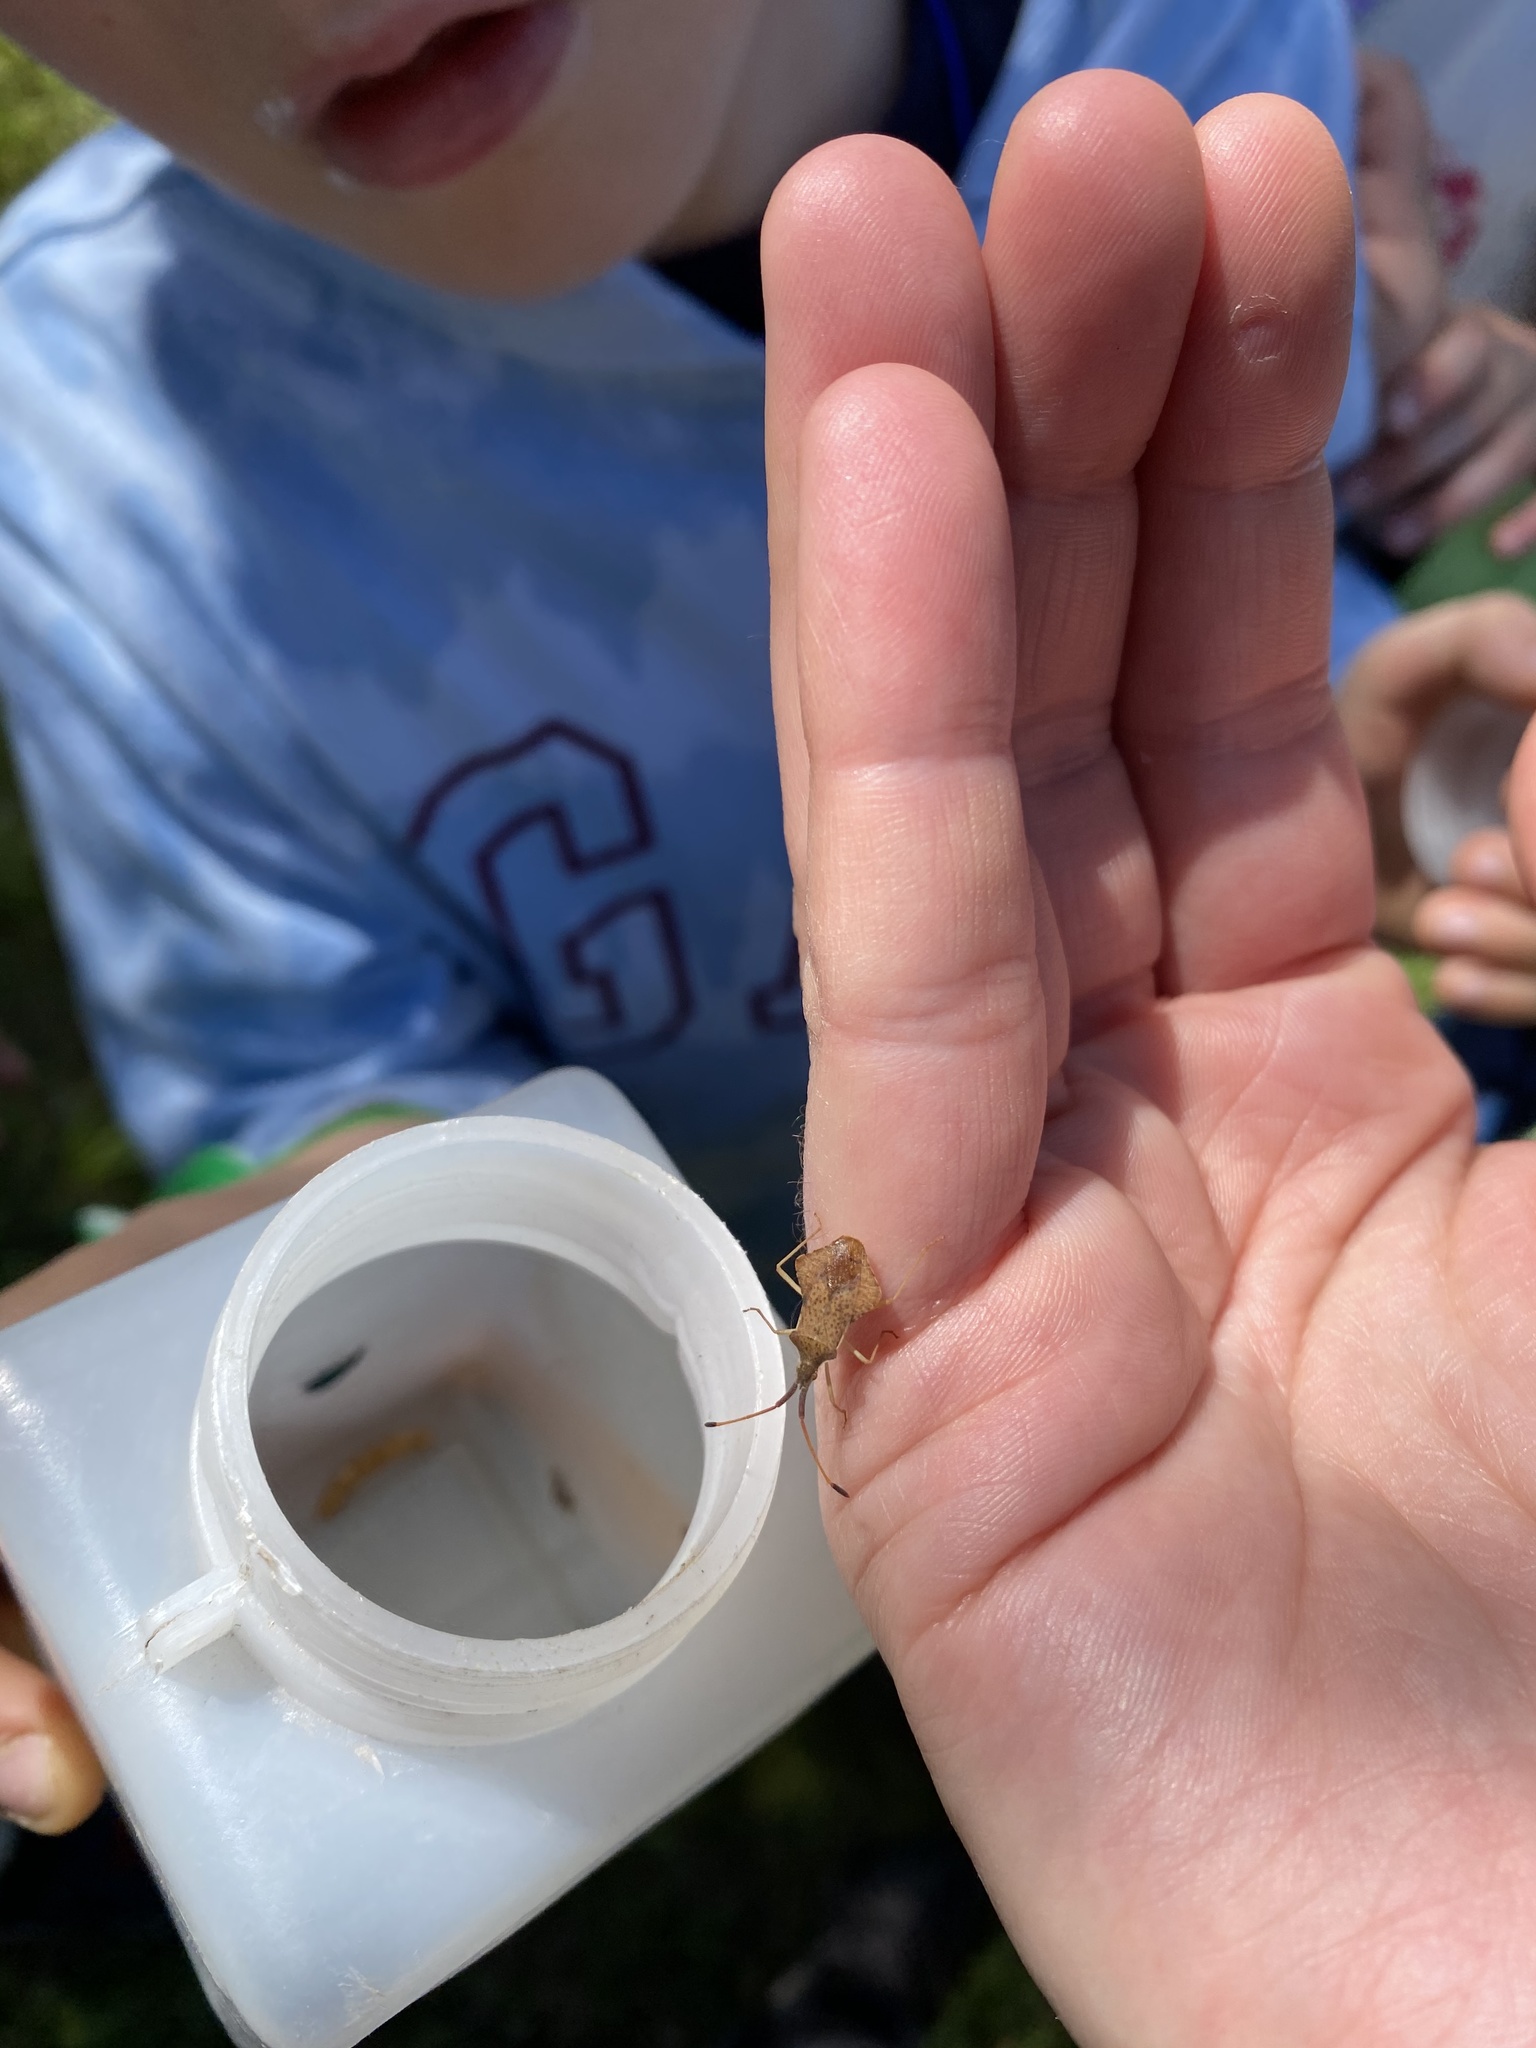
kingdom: Animalia
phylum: Arthropoda
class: Insecta
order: Hemiptera
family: Coreidae
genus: Syromastus
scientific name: Syromastus rhombeus
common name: Rhombic leatherbug
